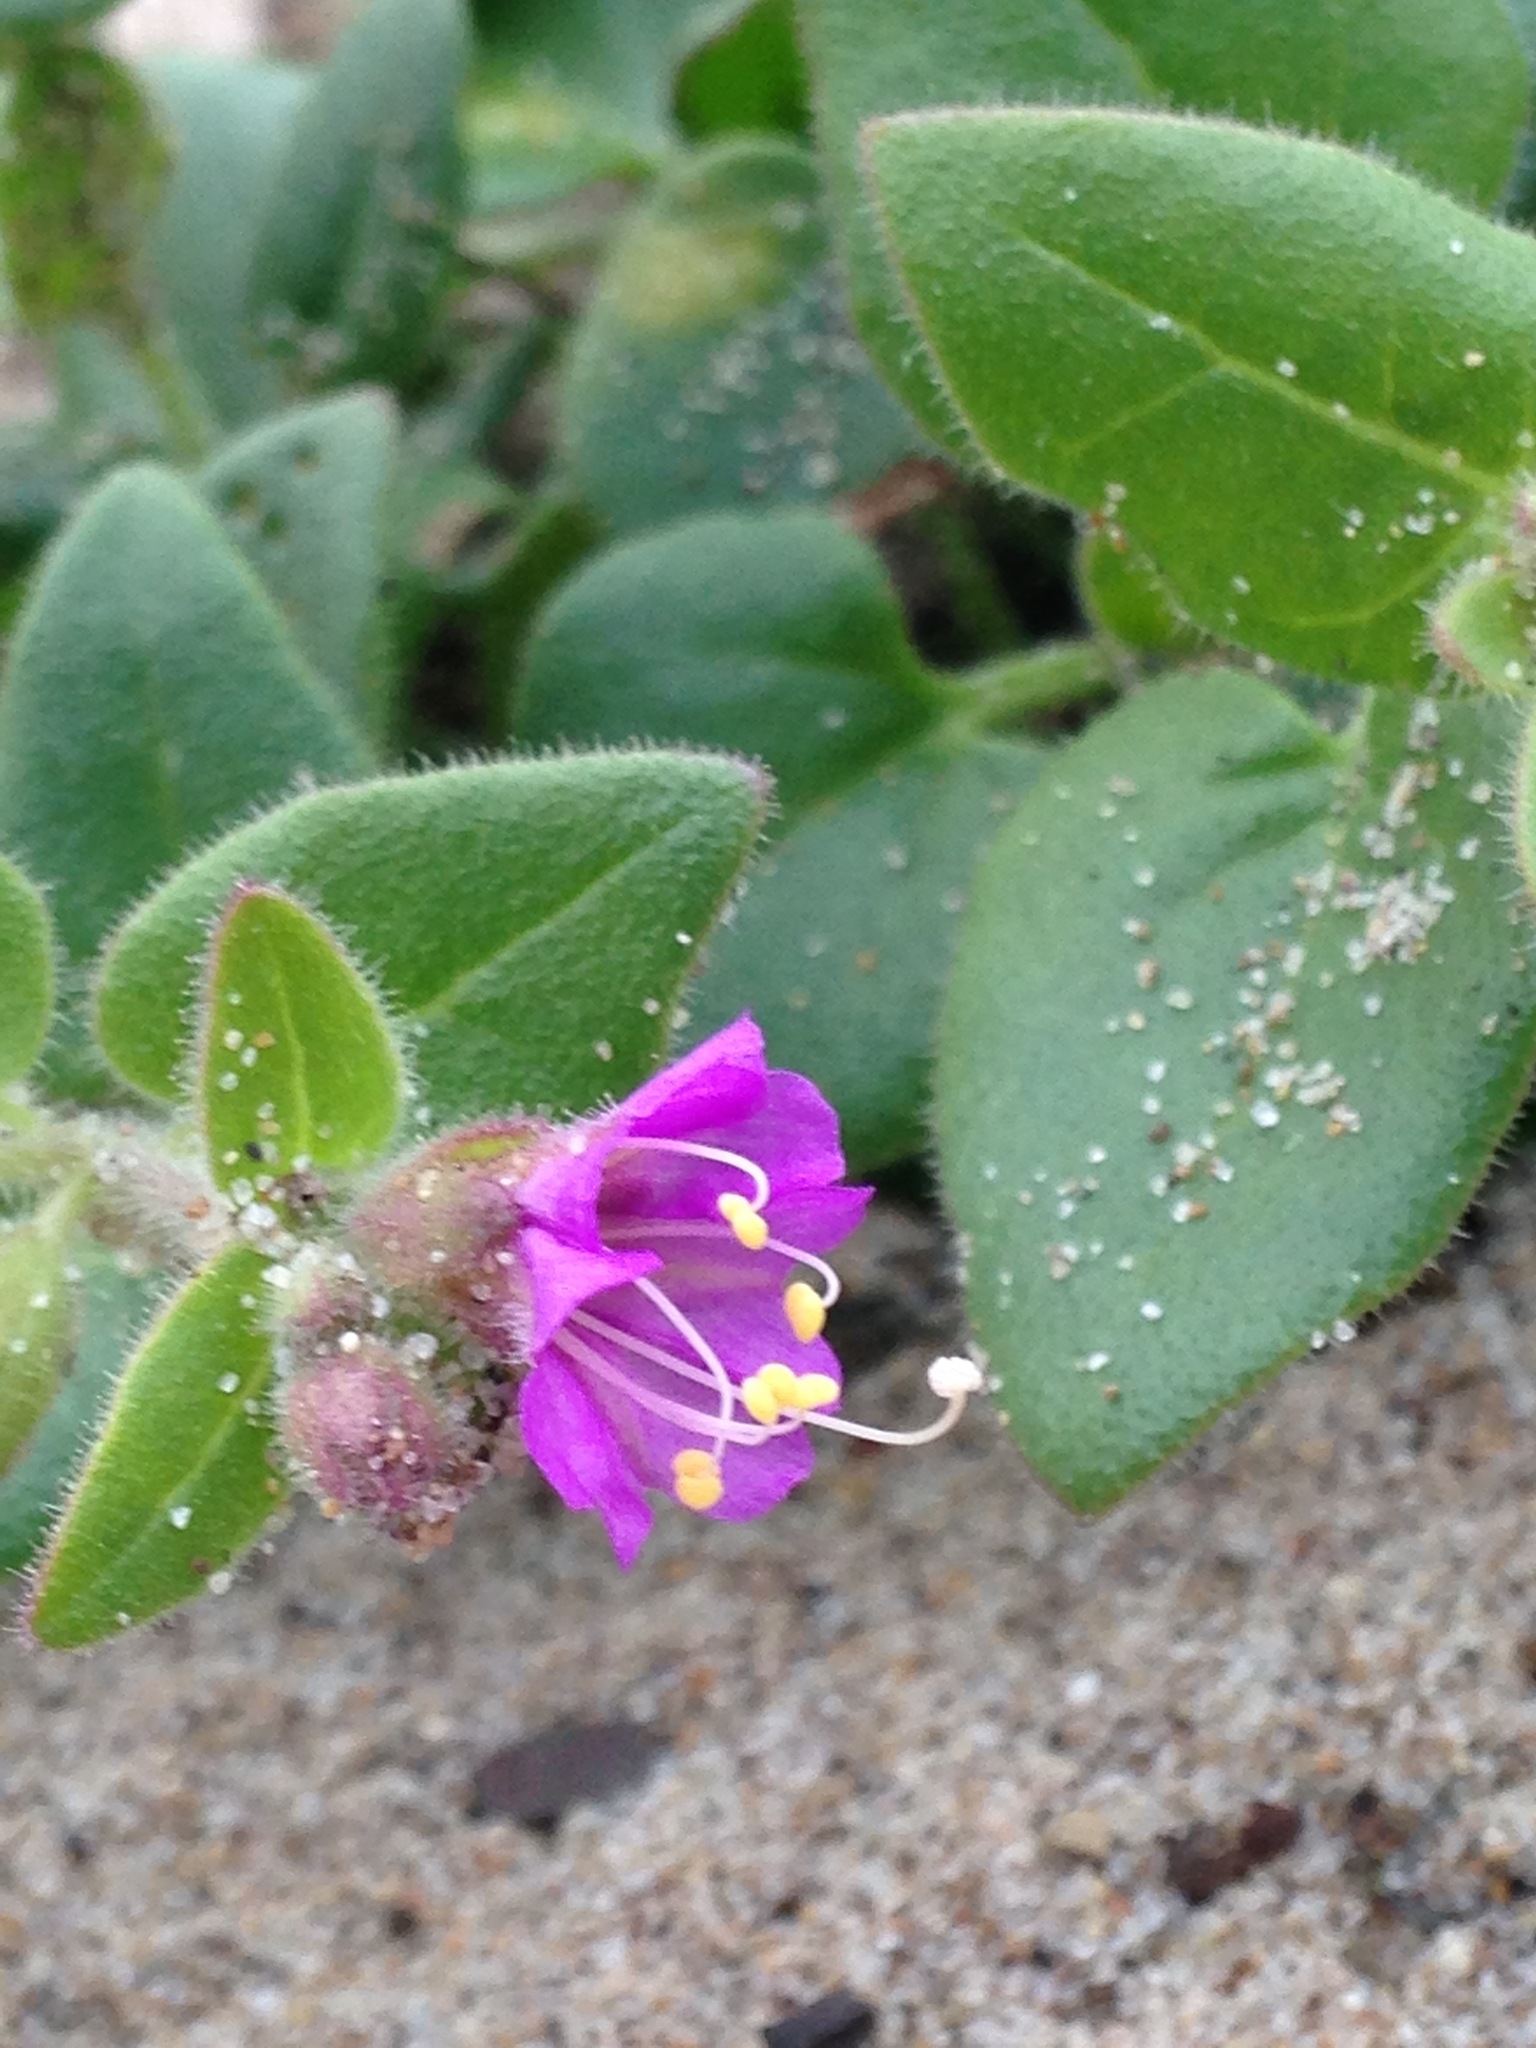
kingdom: Plantae
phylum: Tracheophyta
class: Magnoliopsida
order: Caryophyllales
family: Nyctaginaceae
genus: Mirabilis
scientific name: Mirabilis laevis
